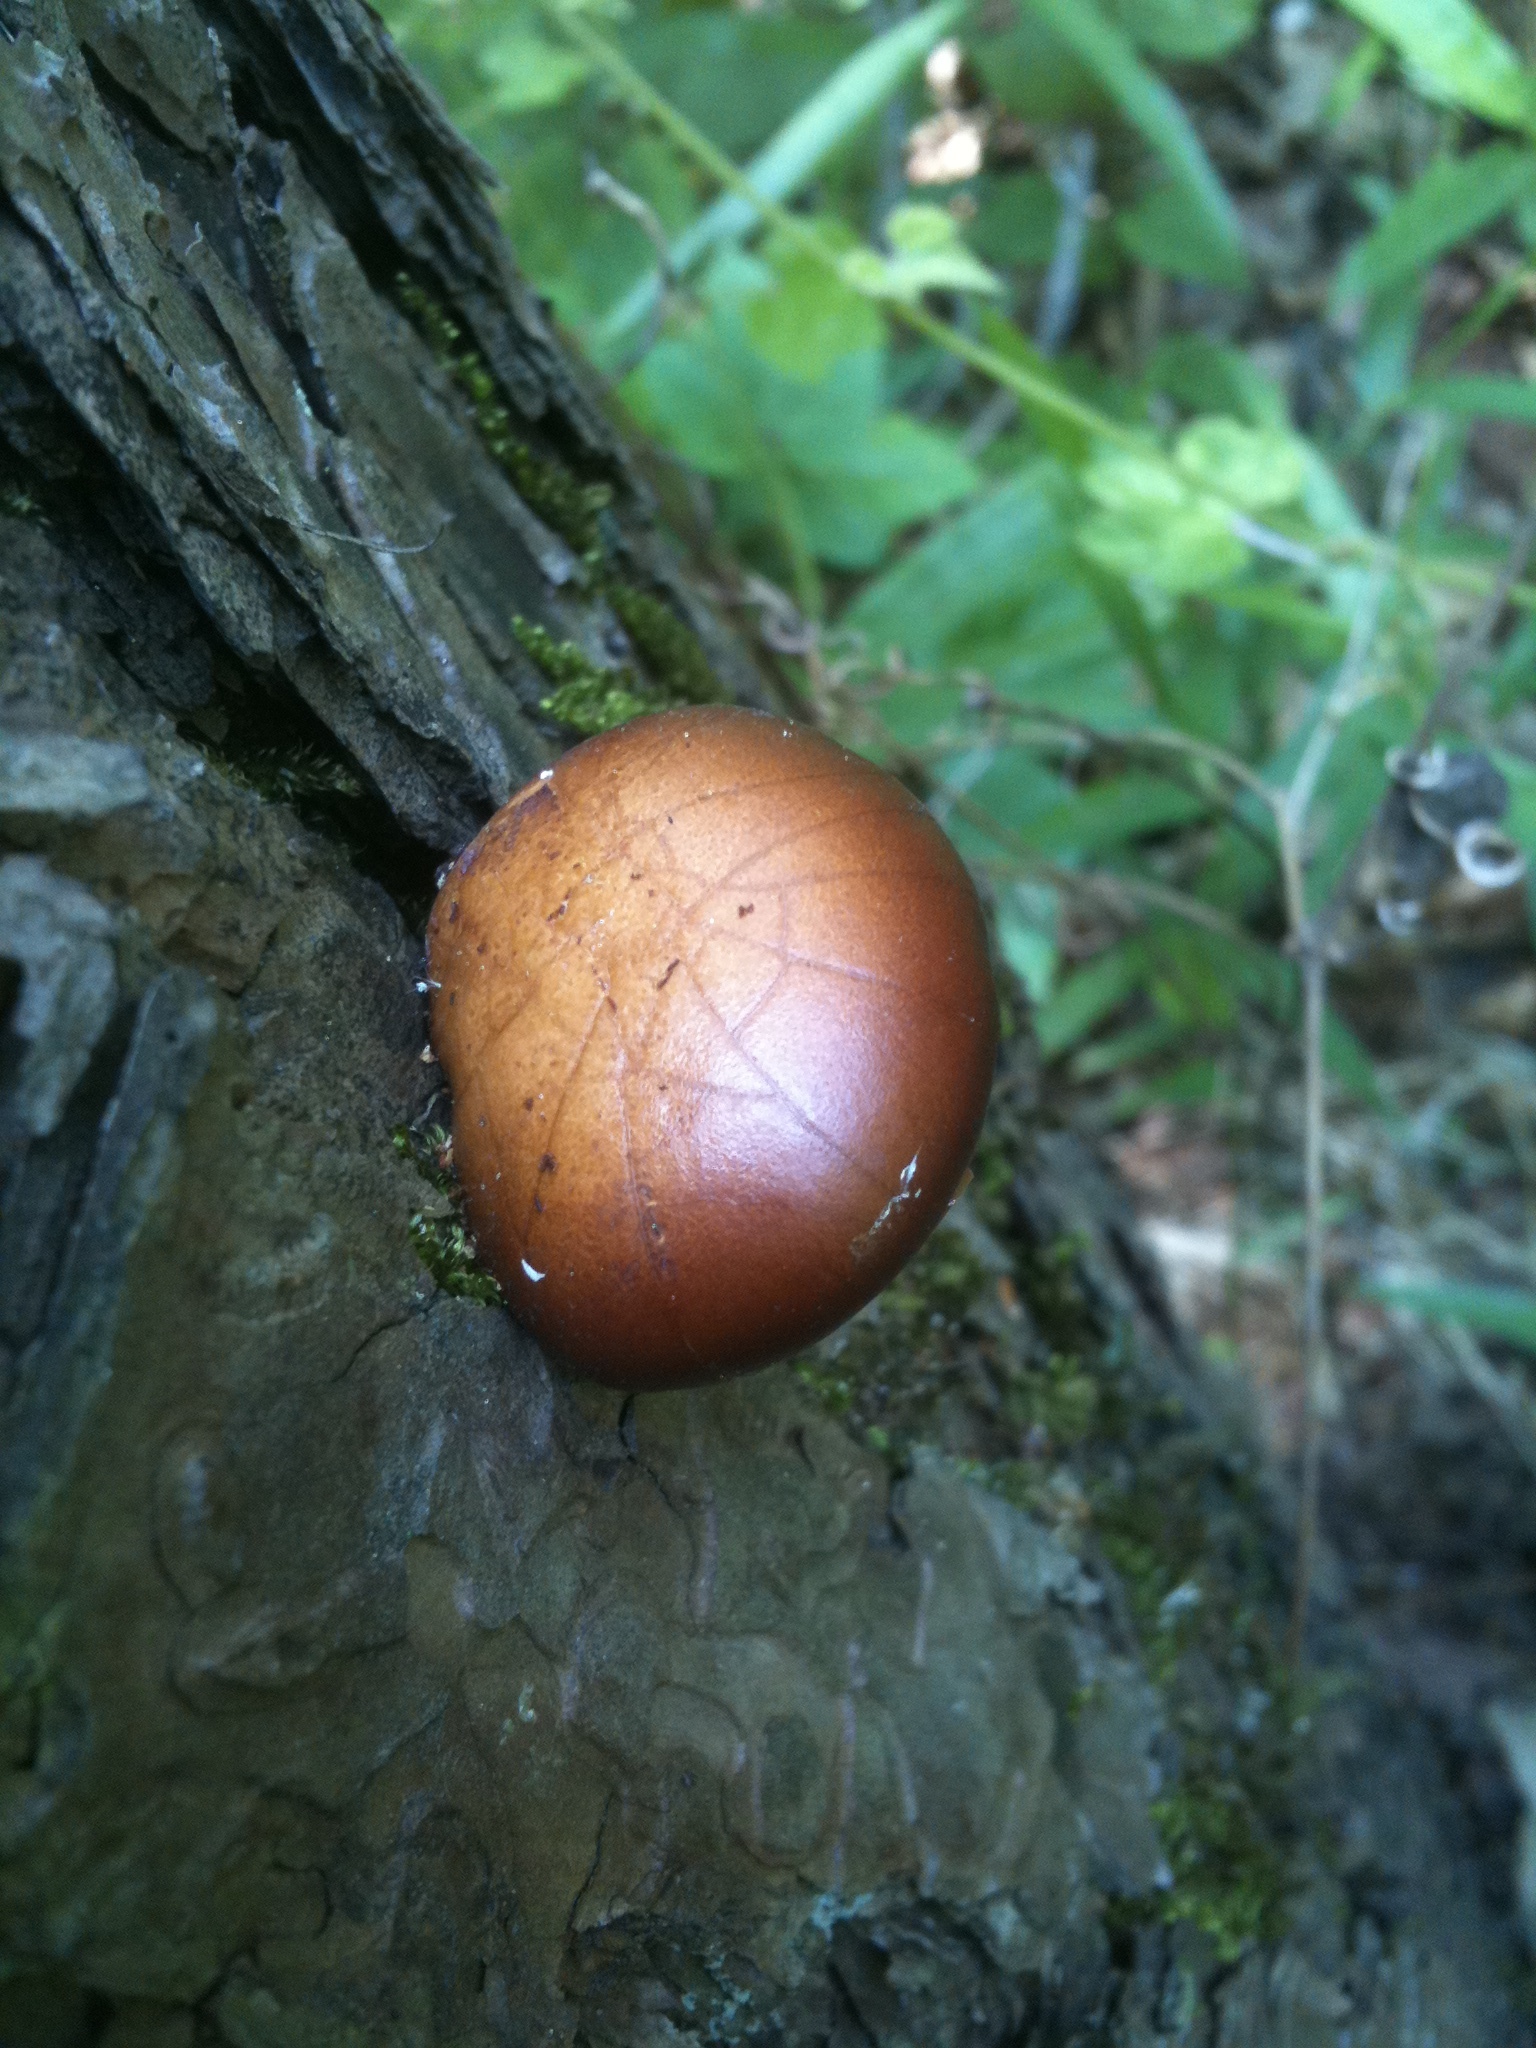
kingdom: Fungi
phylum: Basidiomycota
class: Agaricomycetes
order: Polyporales
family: Polyporaceae
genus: Cryptoporus
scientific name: Cryptoporus volvatus
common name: Veiled polypore
